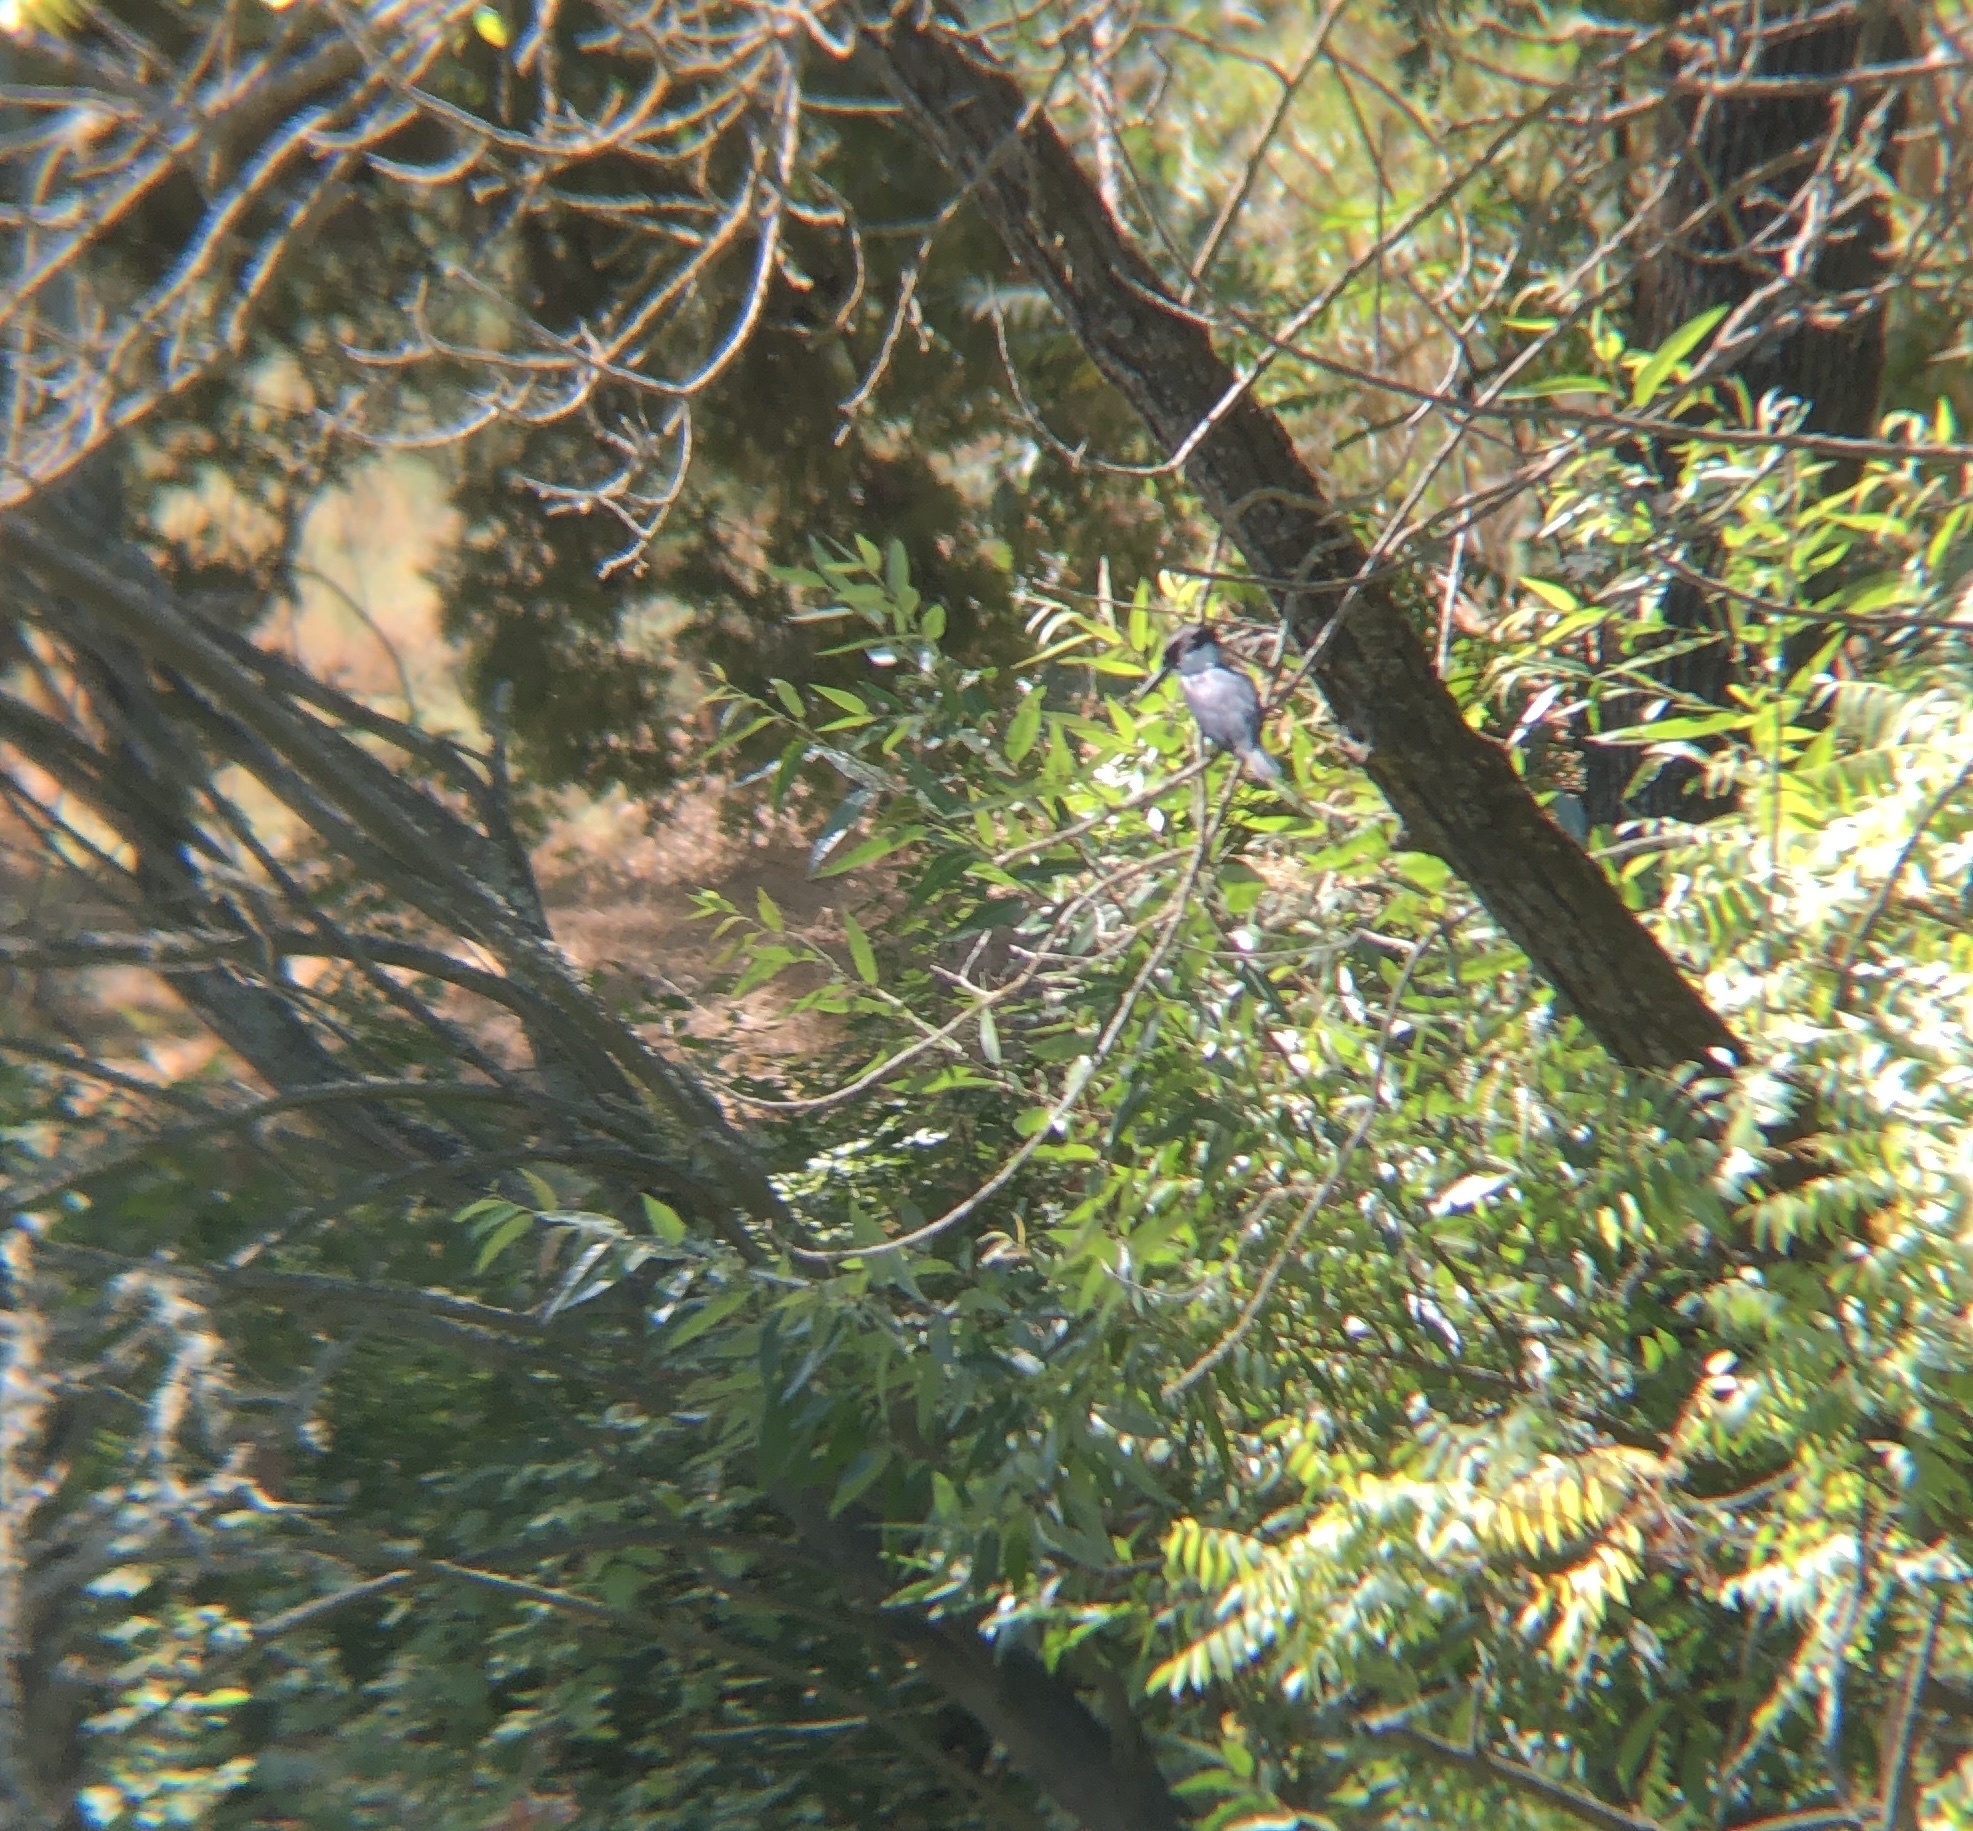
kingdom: Animalia
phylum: Chordata
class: Aves
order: Coraciiformes
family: Alcedinidae
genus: Megaceryle
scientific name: Megaceryle alcyon
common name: Belted kingfisher
